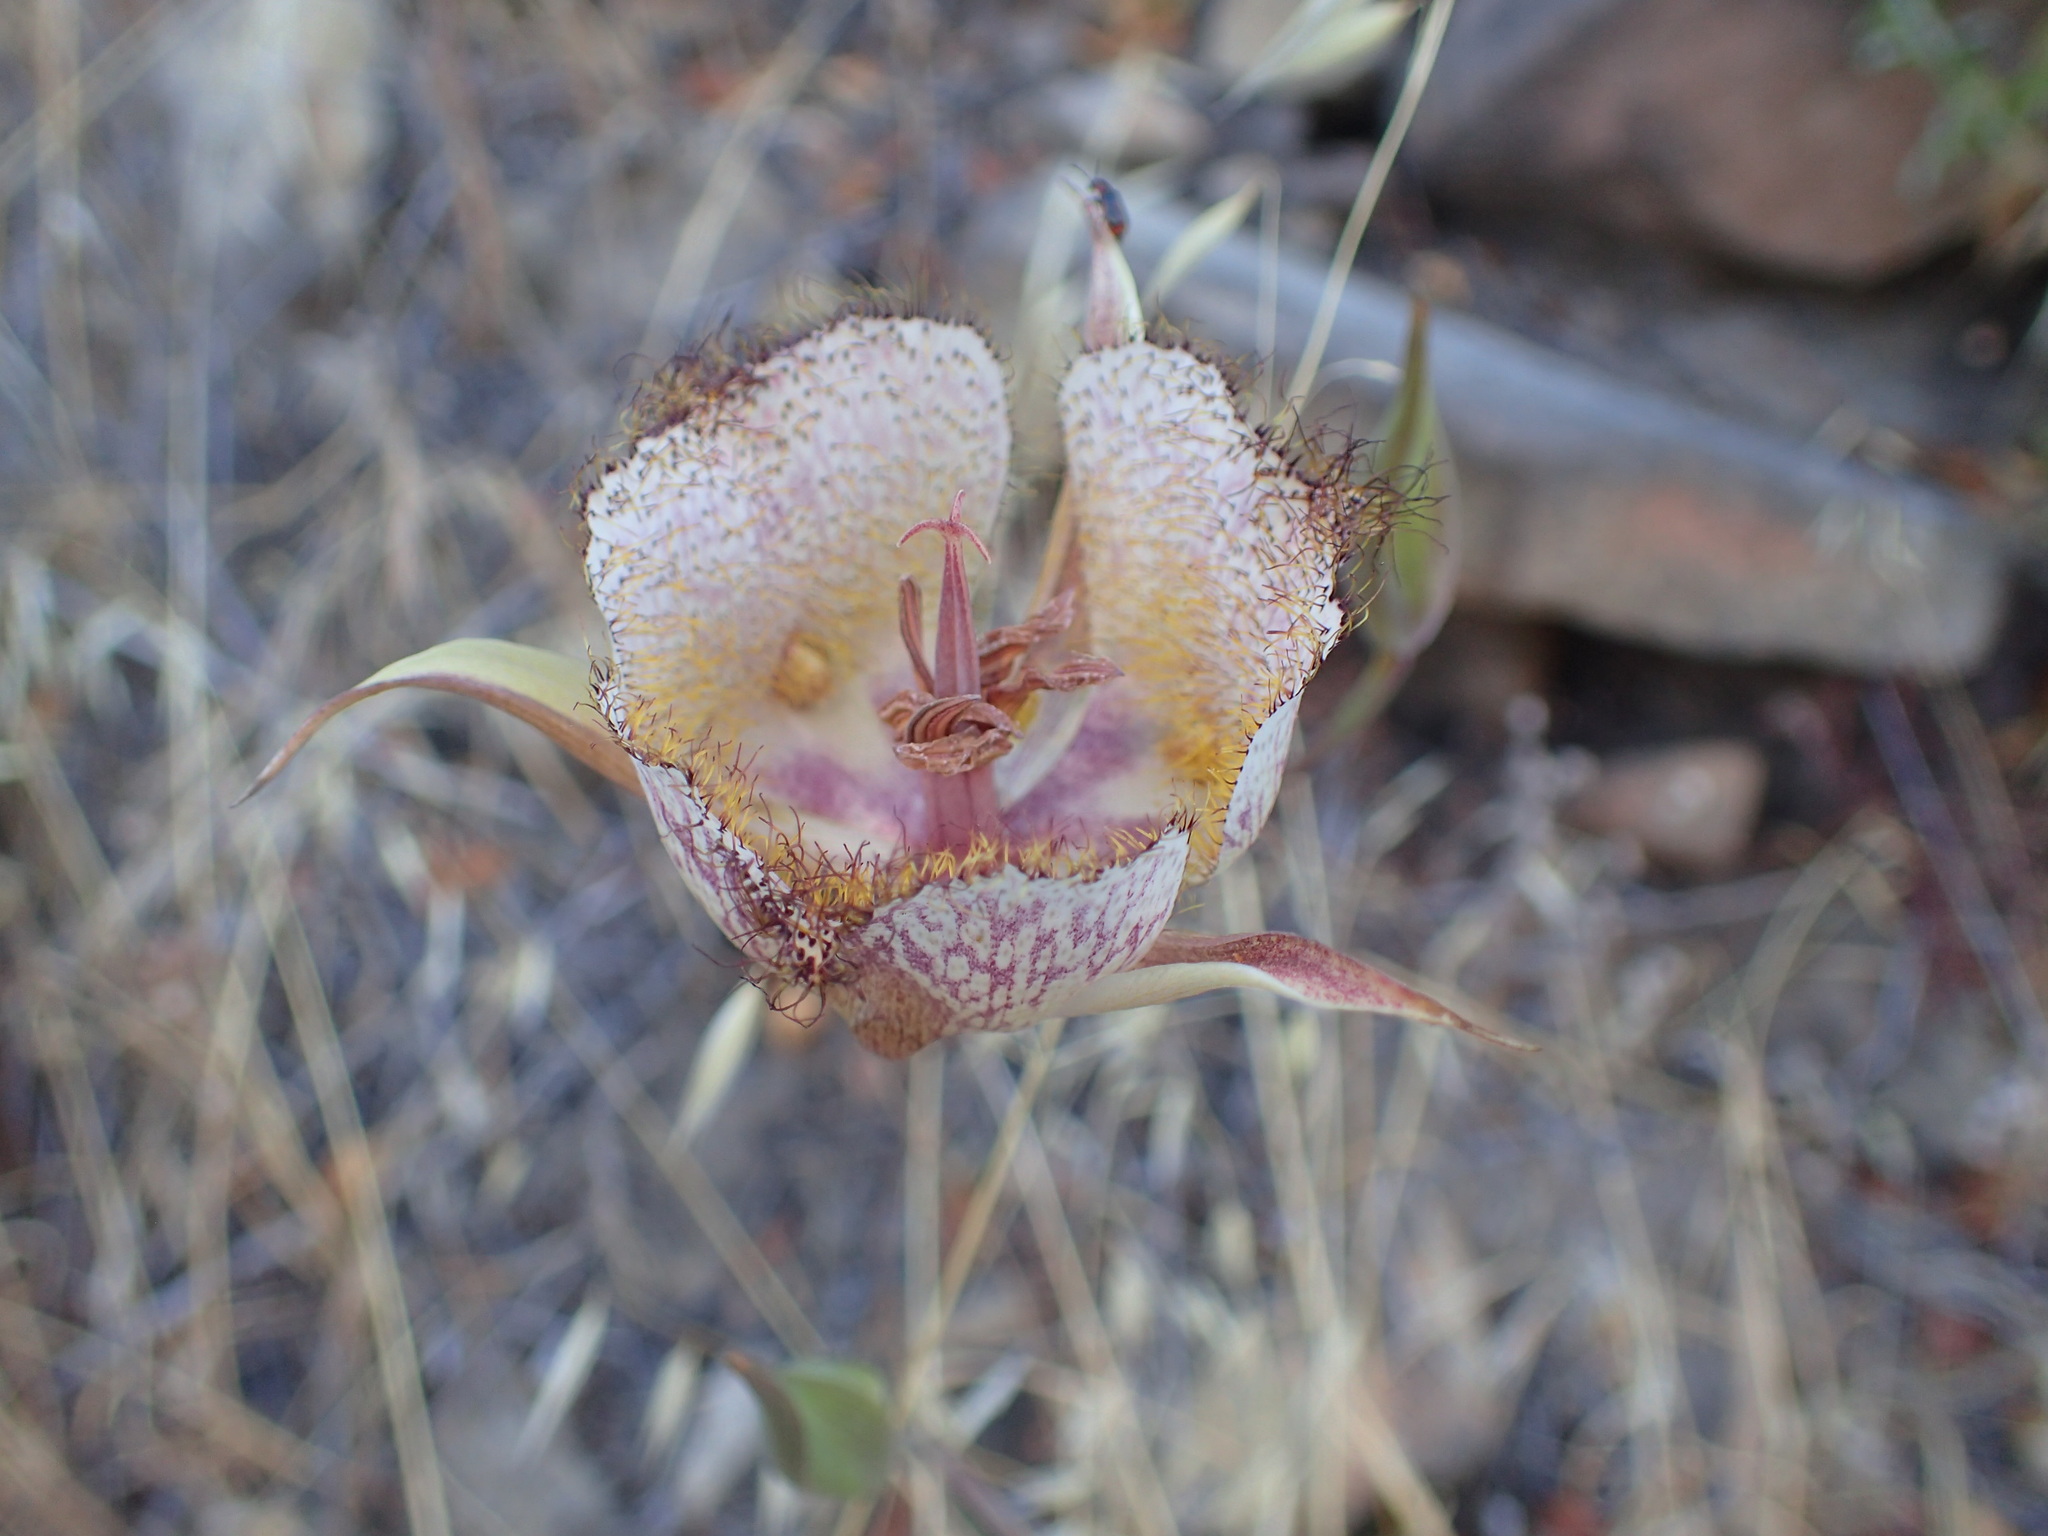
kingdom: Plantae
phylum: Tracheophyta
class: Liliopsida
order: Liliales
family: Liliaceae
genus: Calochortus
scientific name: Calochortus fimbriatus
